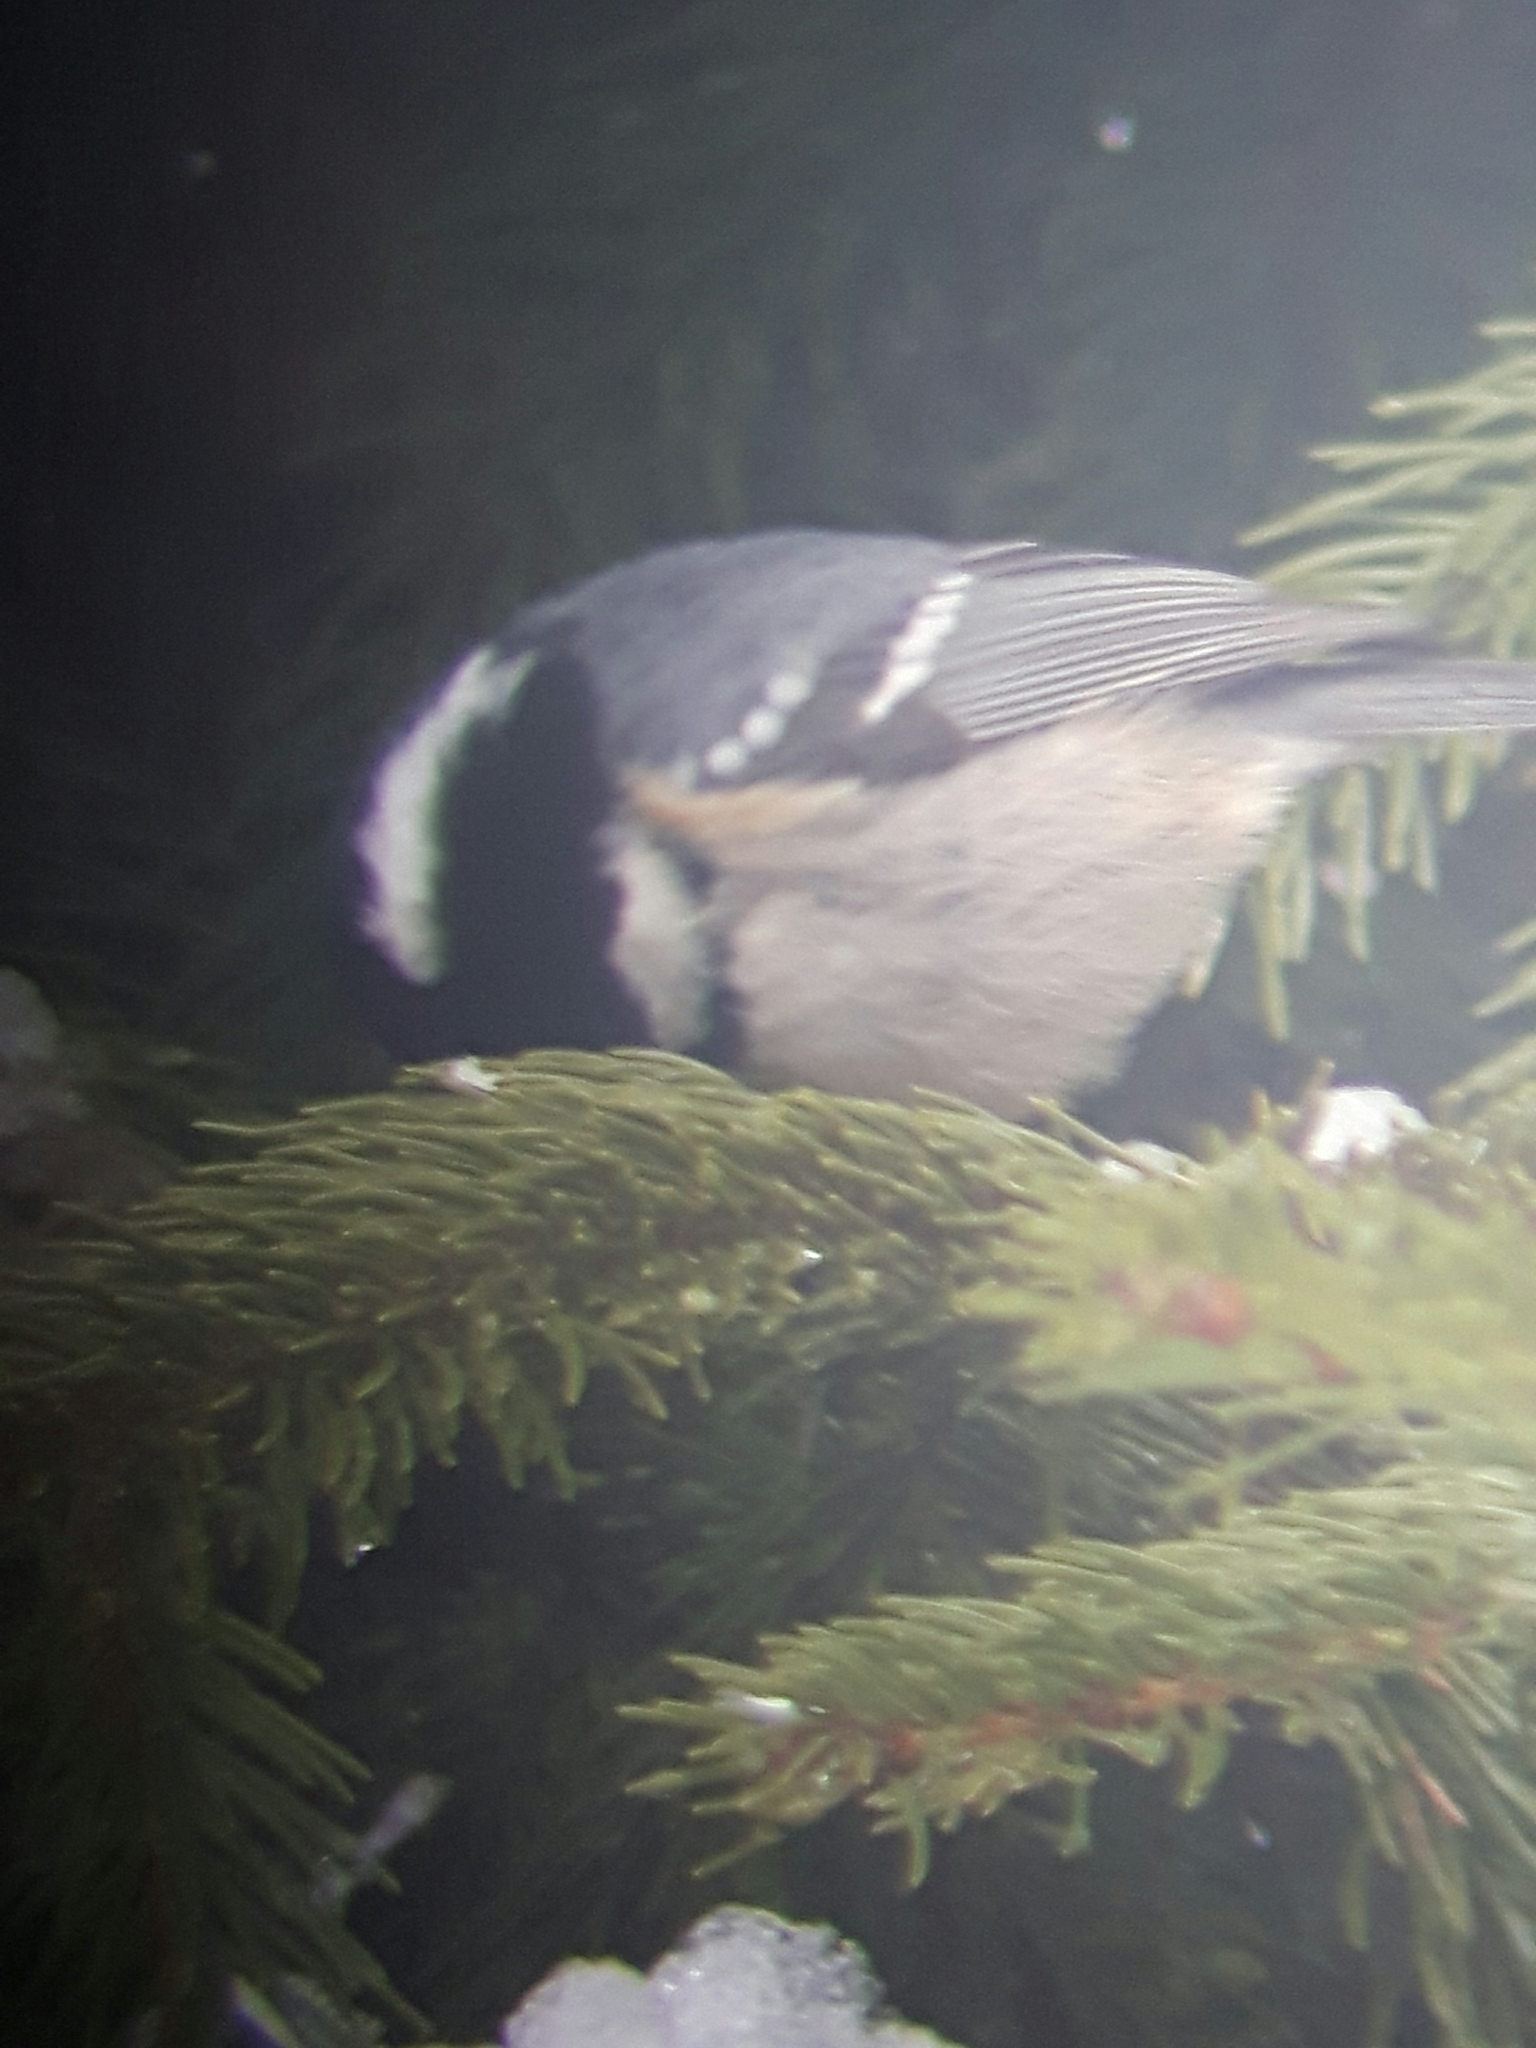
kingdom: Animalia
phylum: Chordata
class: Aves
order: Passeriformes
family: Paridae
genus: Periparus
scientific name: Periparus ater
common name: Coal tit
